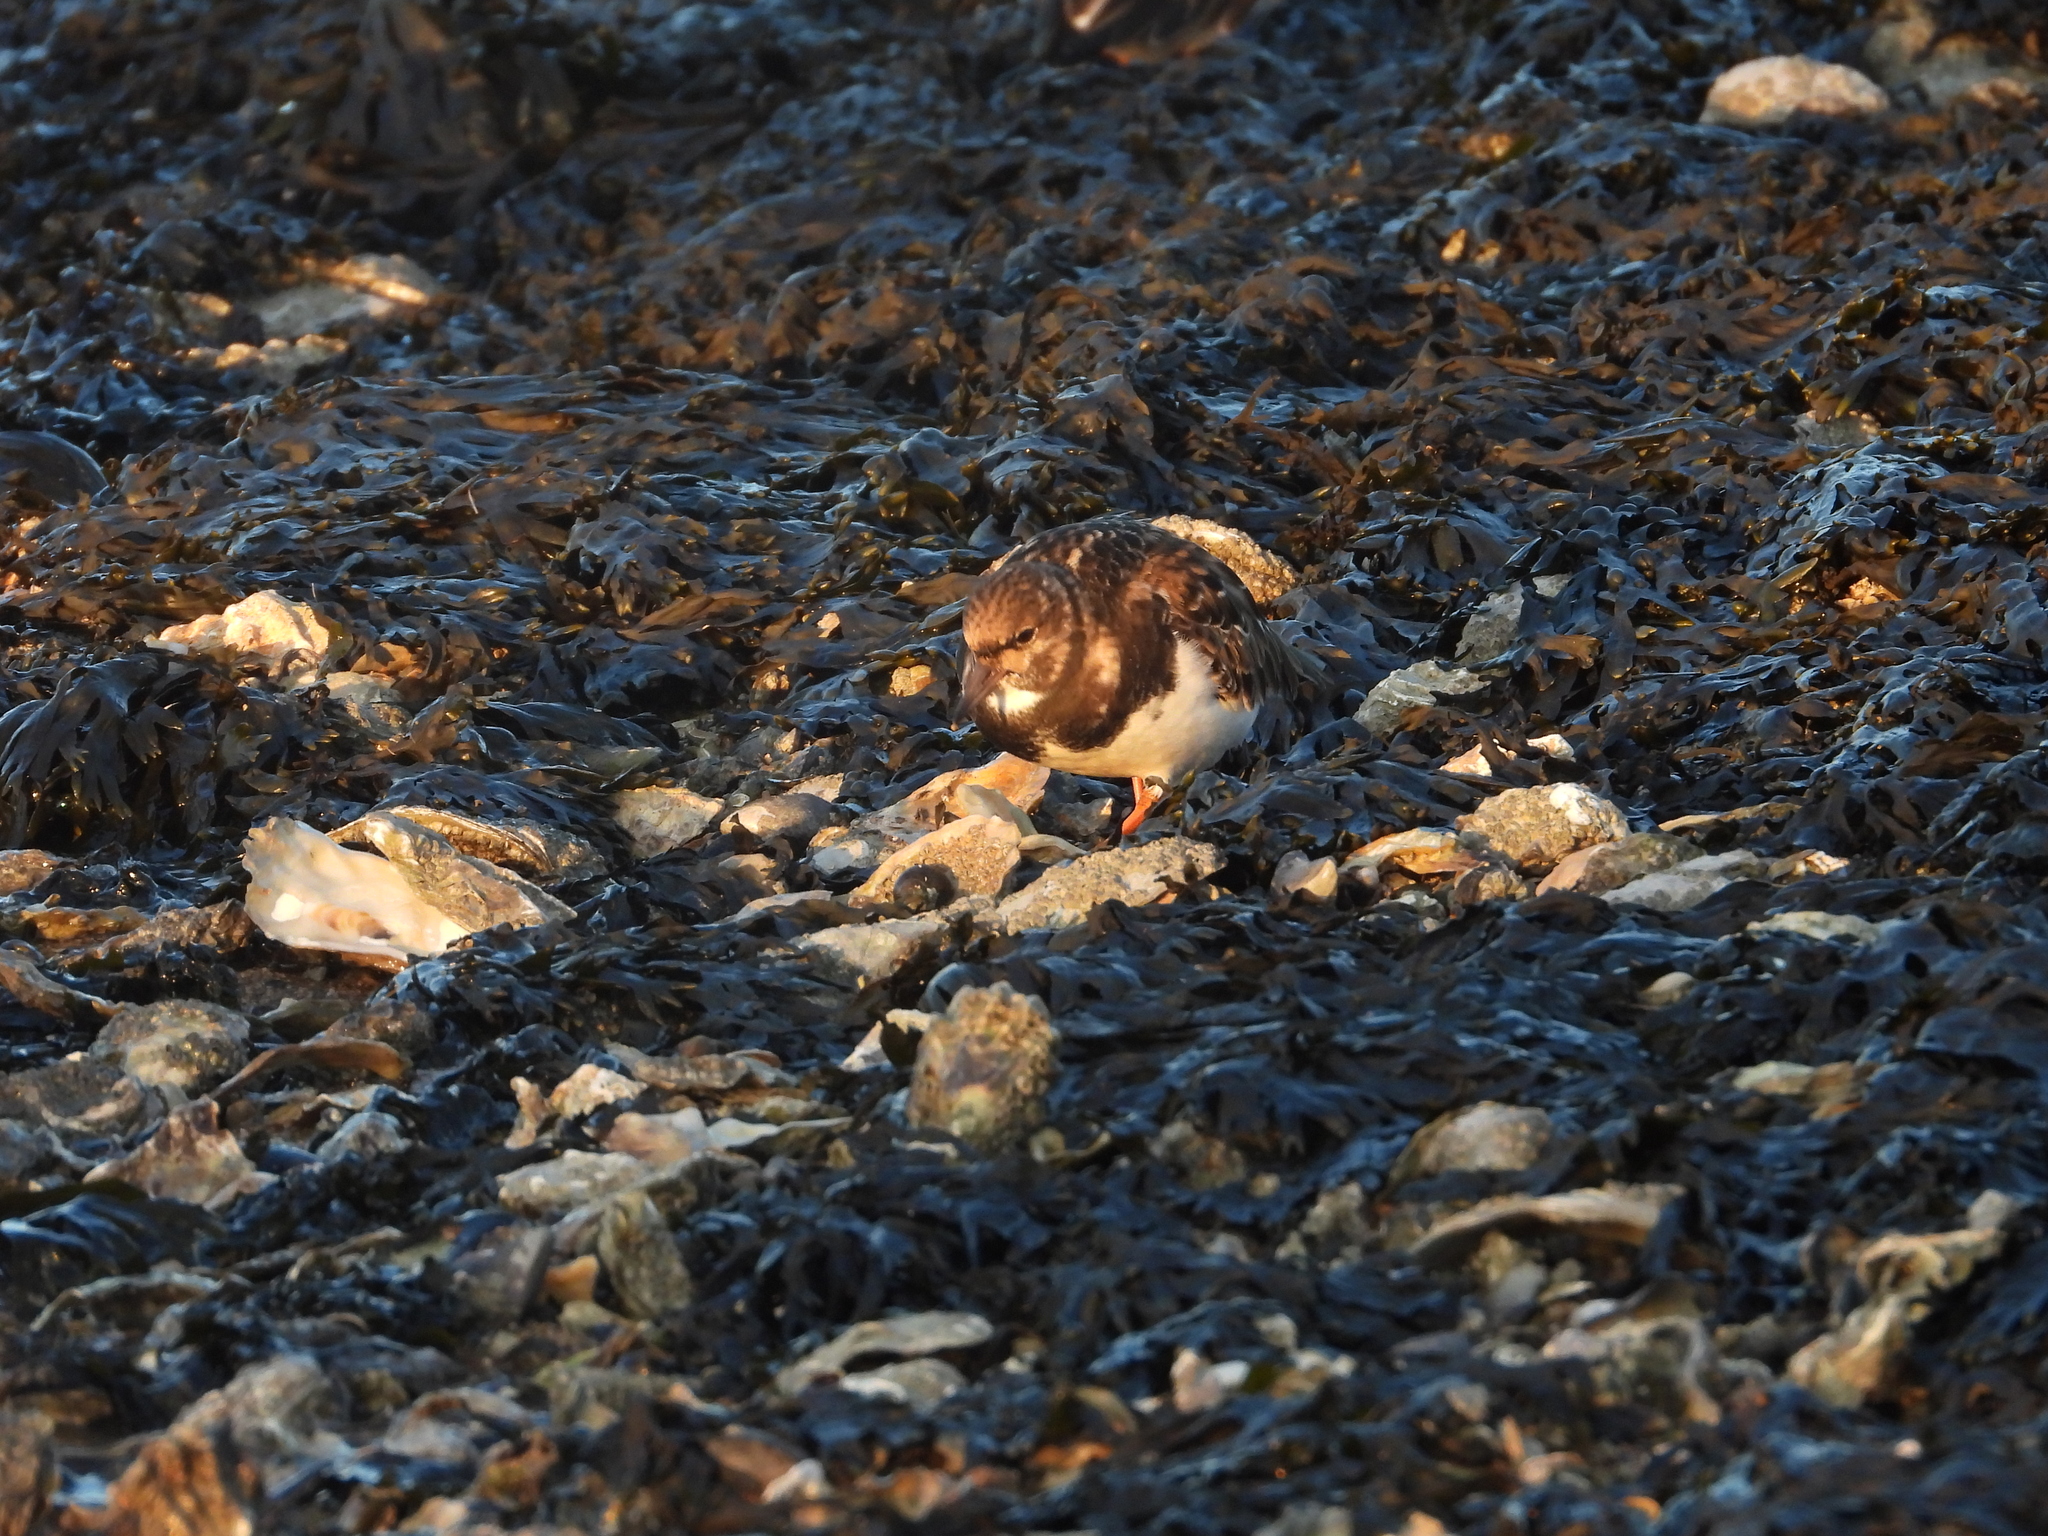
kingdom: Animalia
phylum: Chordata
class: Aves
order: Charadriiformes
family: Scolopacidae
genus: Arenaria
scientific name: Arenaria interpres
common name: Ruddy turnstone
